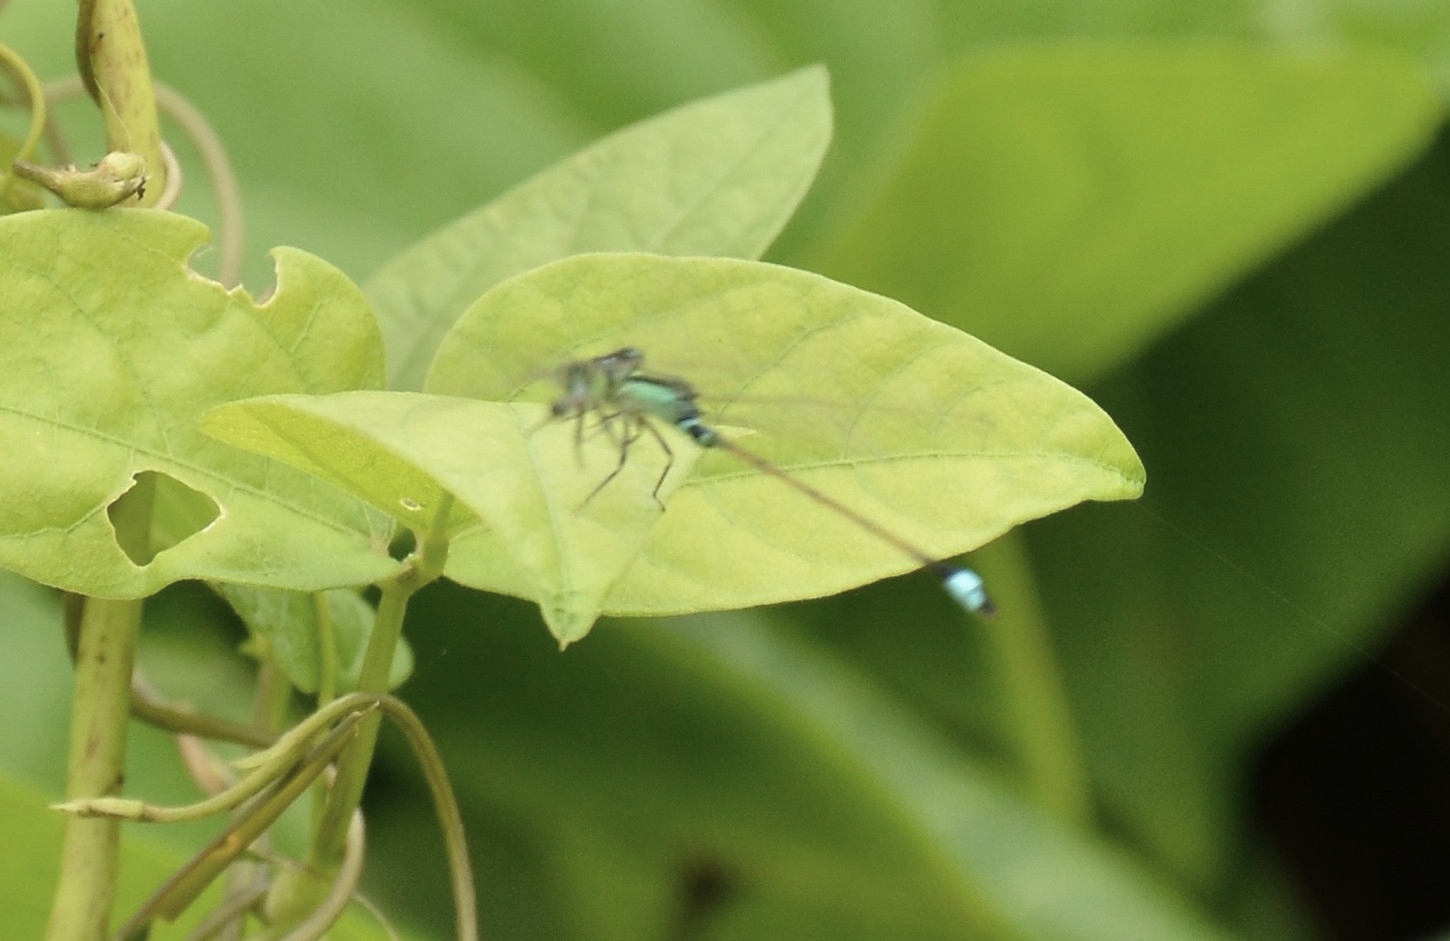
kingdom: Animalia
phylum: Arthropoda
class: Insecta
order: Odonata
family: Coenagrionidae
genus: Ischnura
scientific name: Ischnura senegalensis
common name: Tropical bluetail
